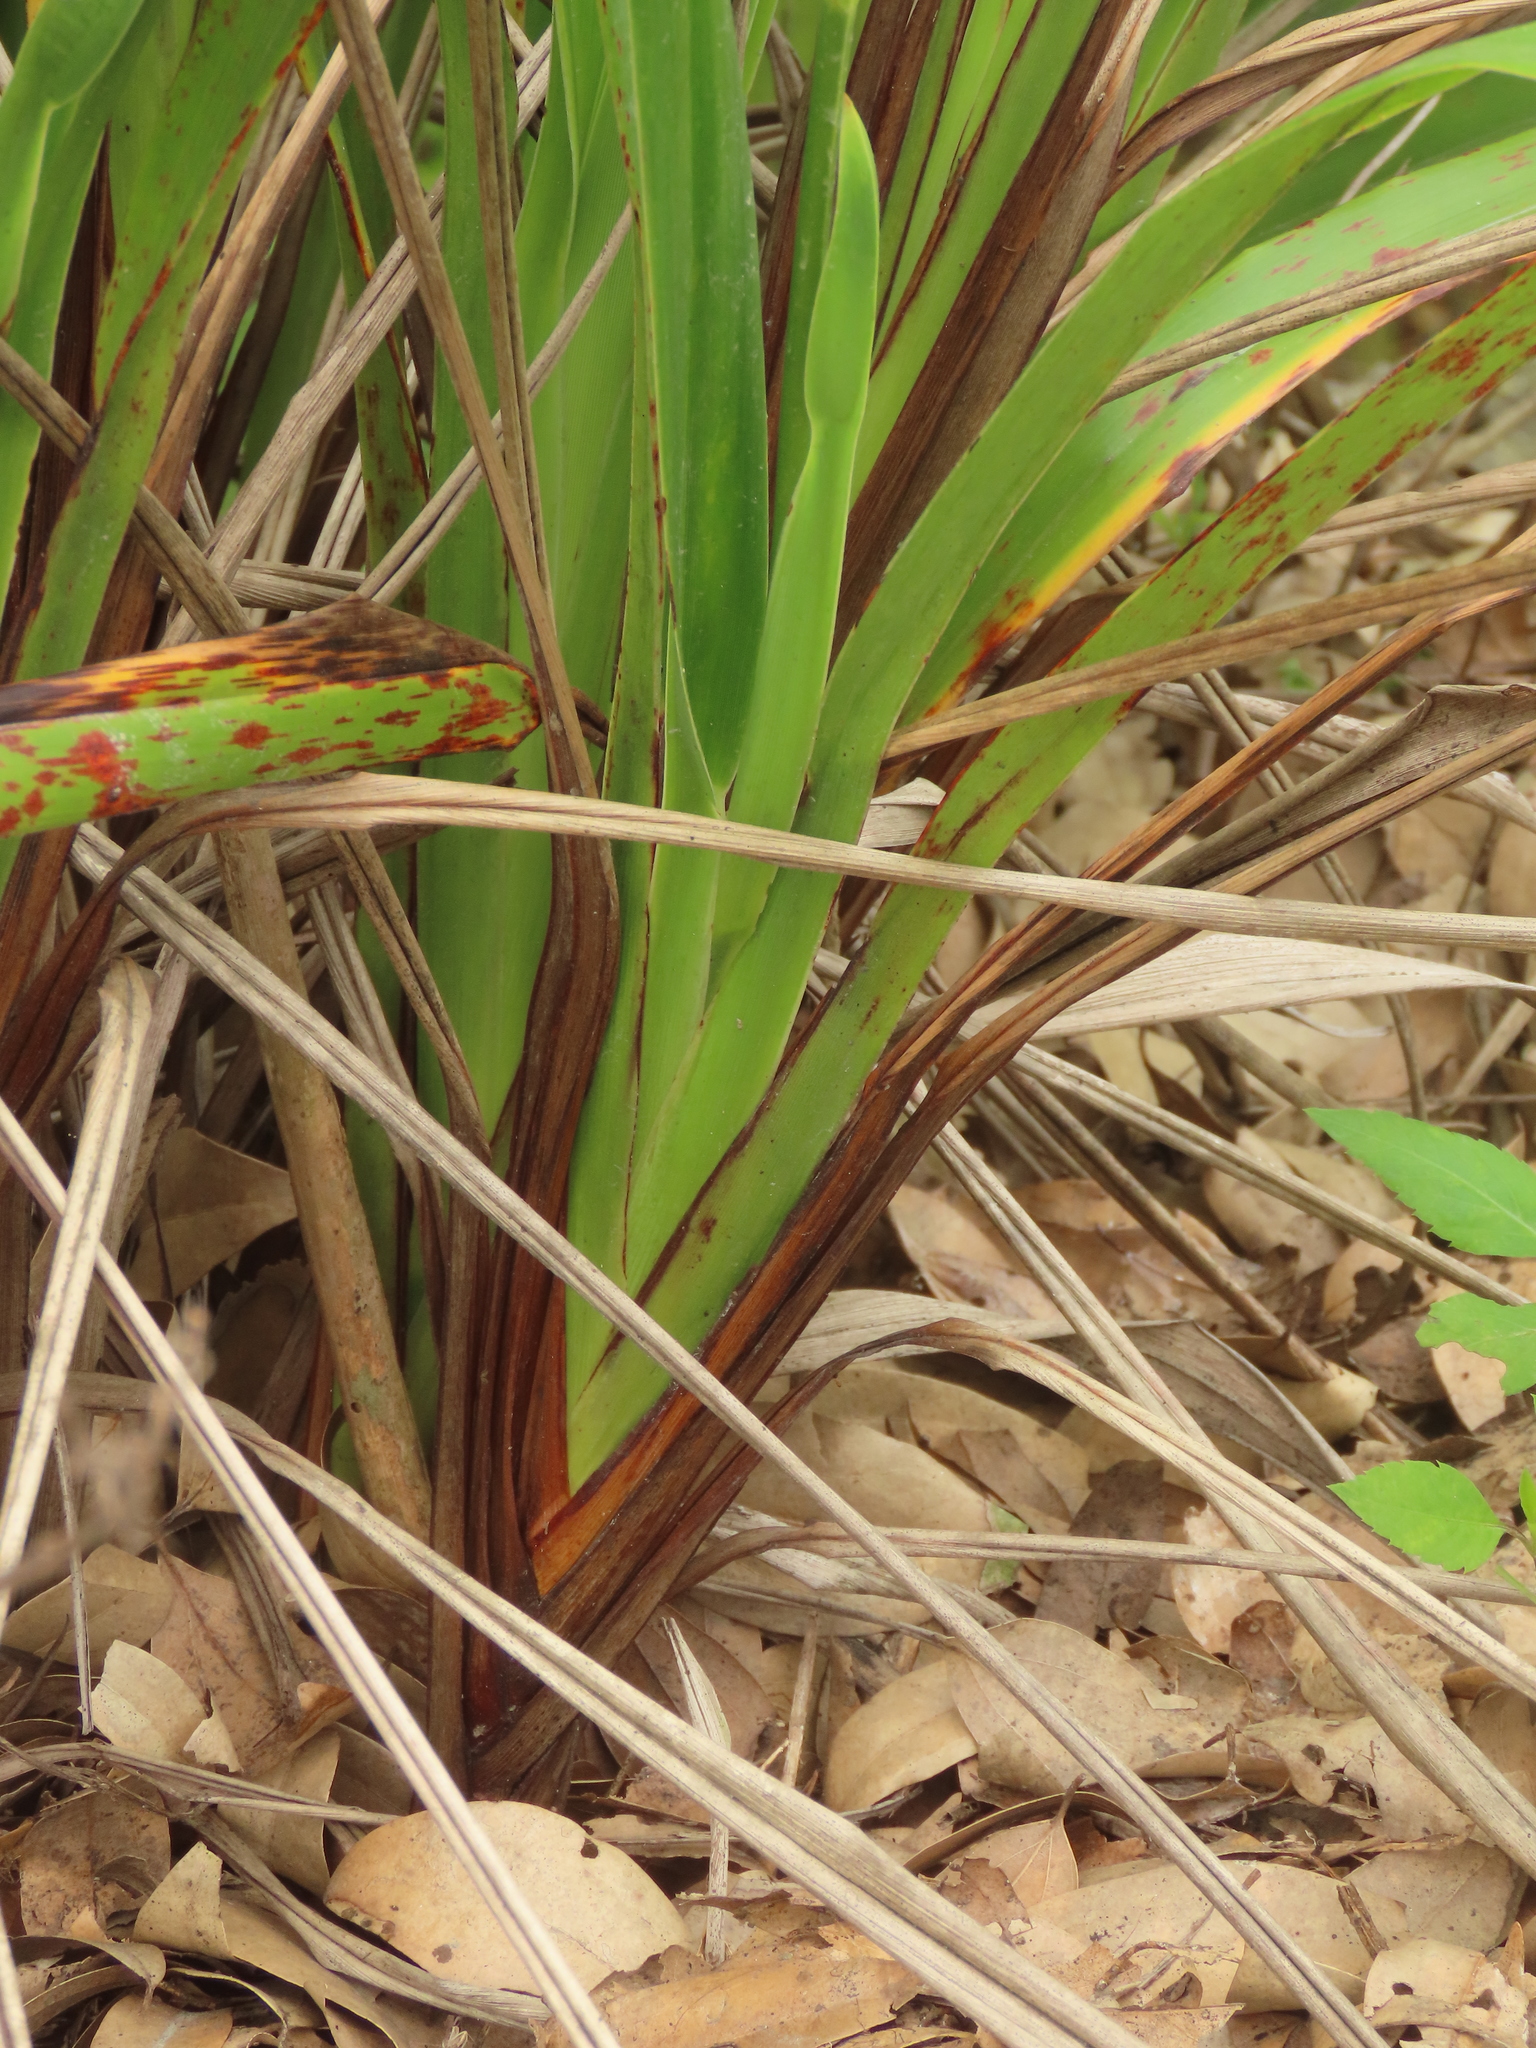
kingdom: Plantae
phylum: Tracheophyta
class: Liliopsida
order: Asparagales
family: Asphodelaceae
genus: Dianella
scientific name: Dianella ensifolia
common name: New zealand lilyplant
